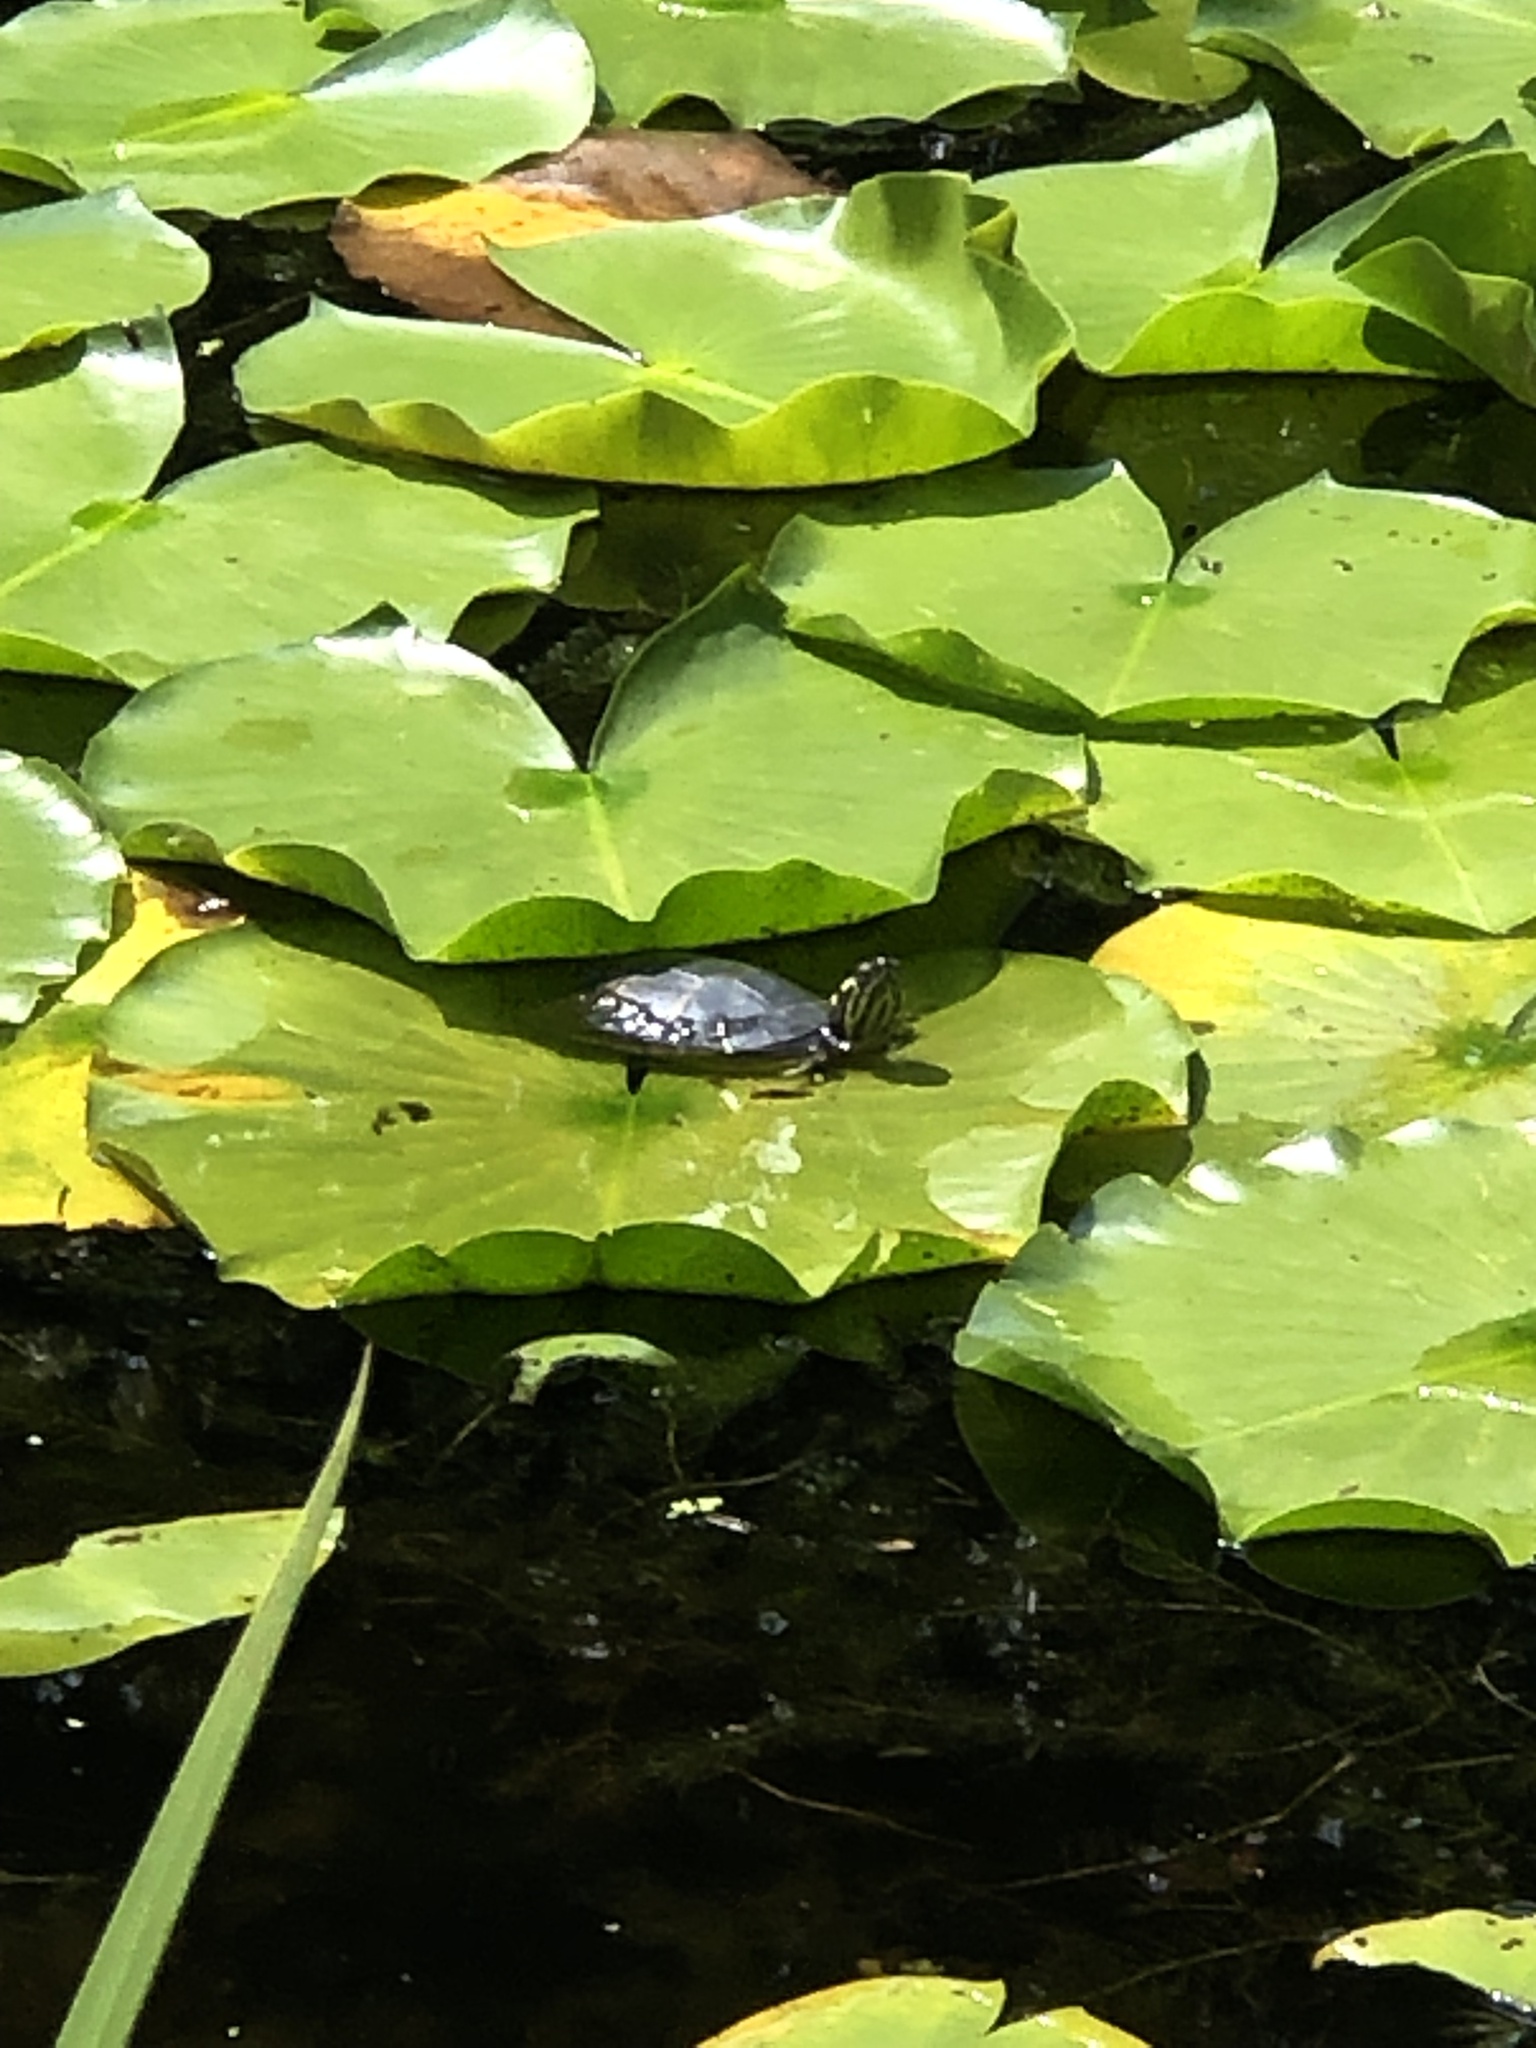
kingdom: Animalia
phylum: Chordata
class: Testudines
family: Emydidae
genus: Chrysemys
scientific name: Chrysemys picta
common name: Painted turtle
